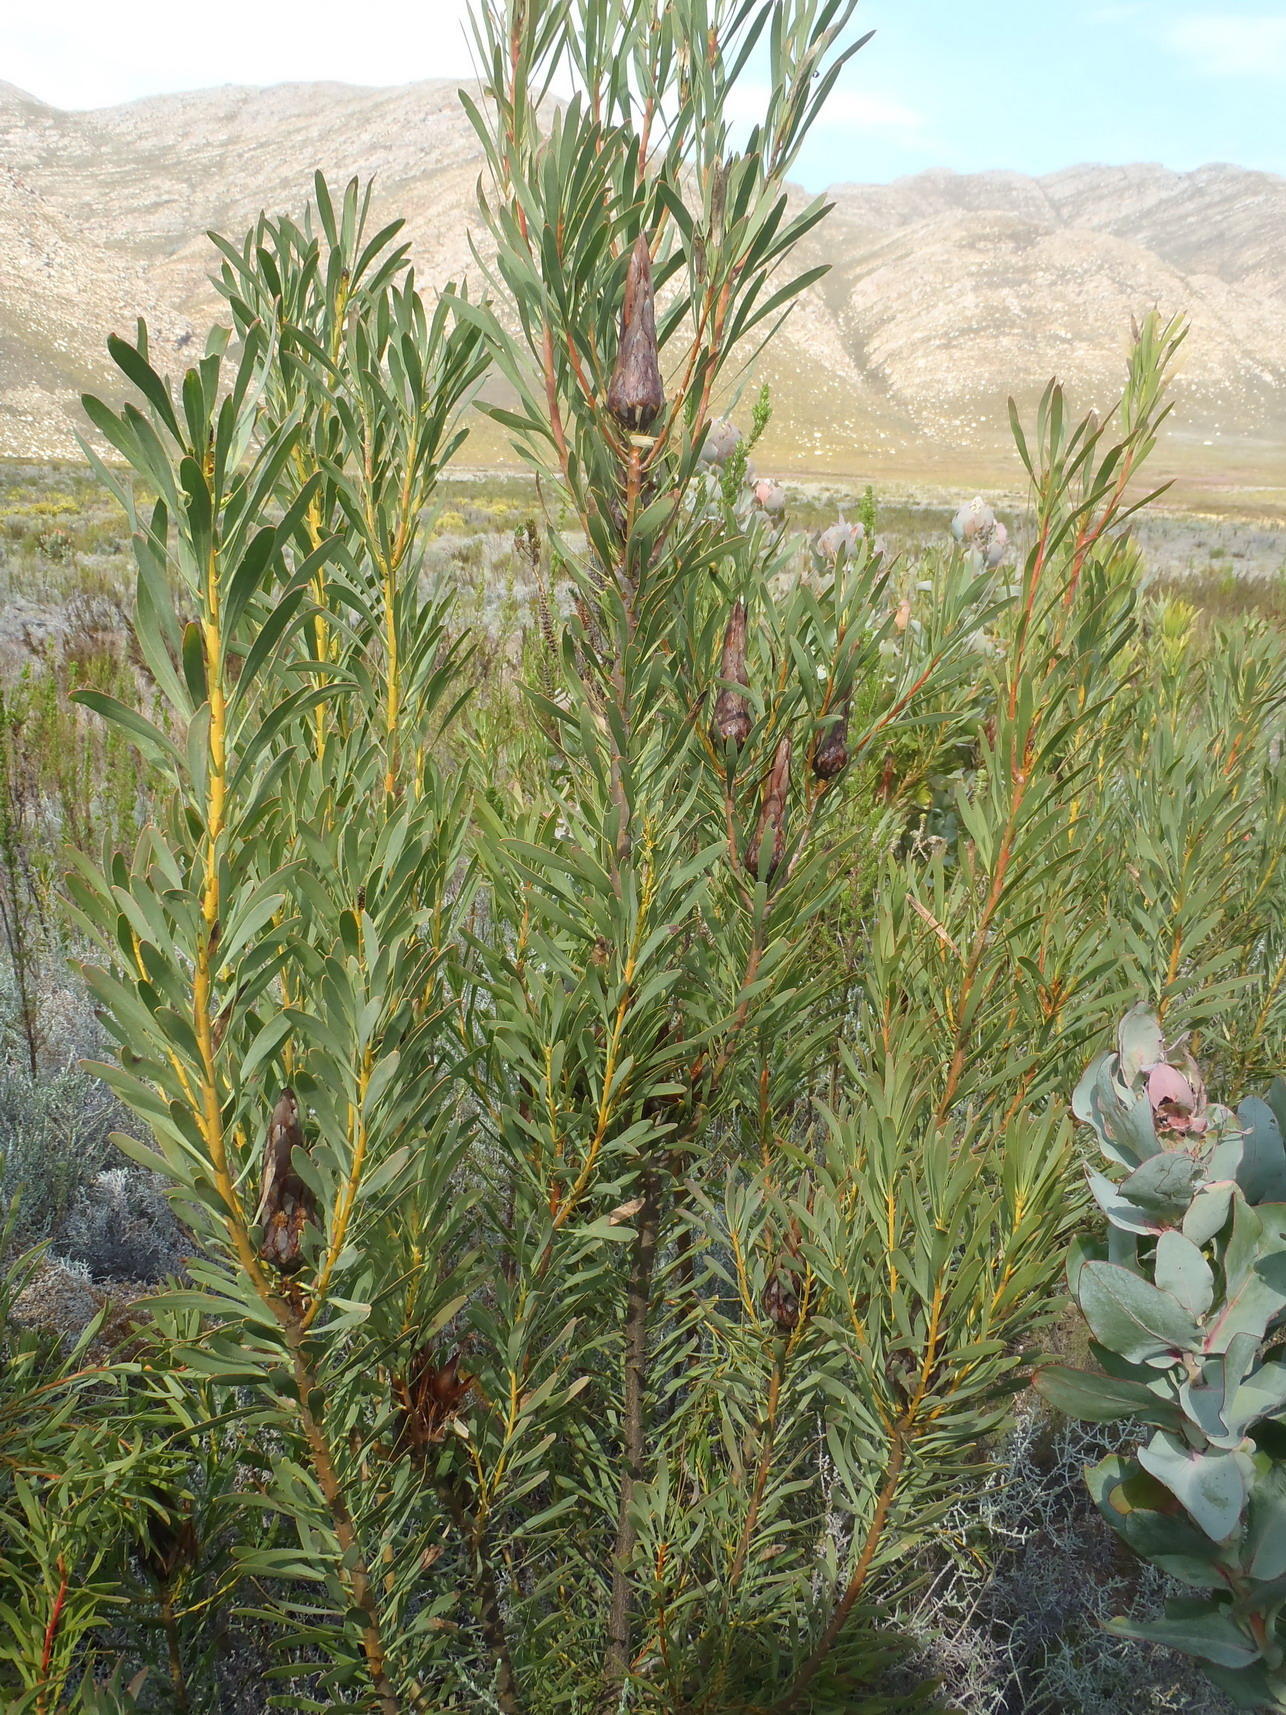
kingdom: Plantae
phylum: Tracheophyta
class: Magnoliopsida
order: Proteales
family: Proteaceae
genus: Protea
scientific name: Protea repens
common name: Sugarbush
